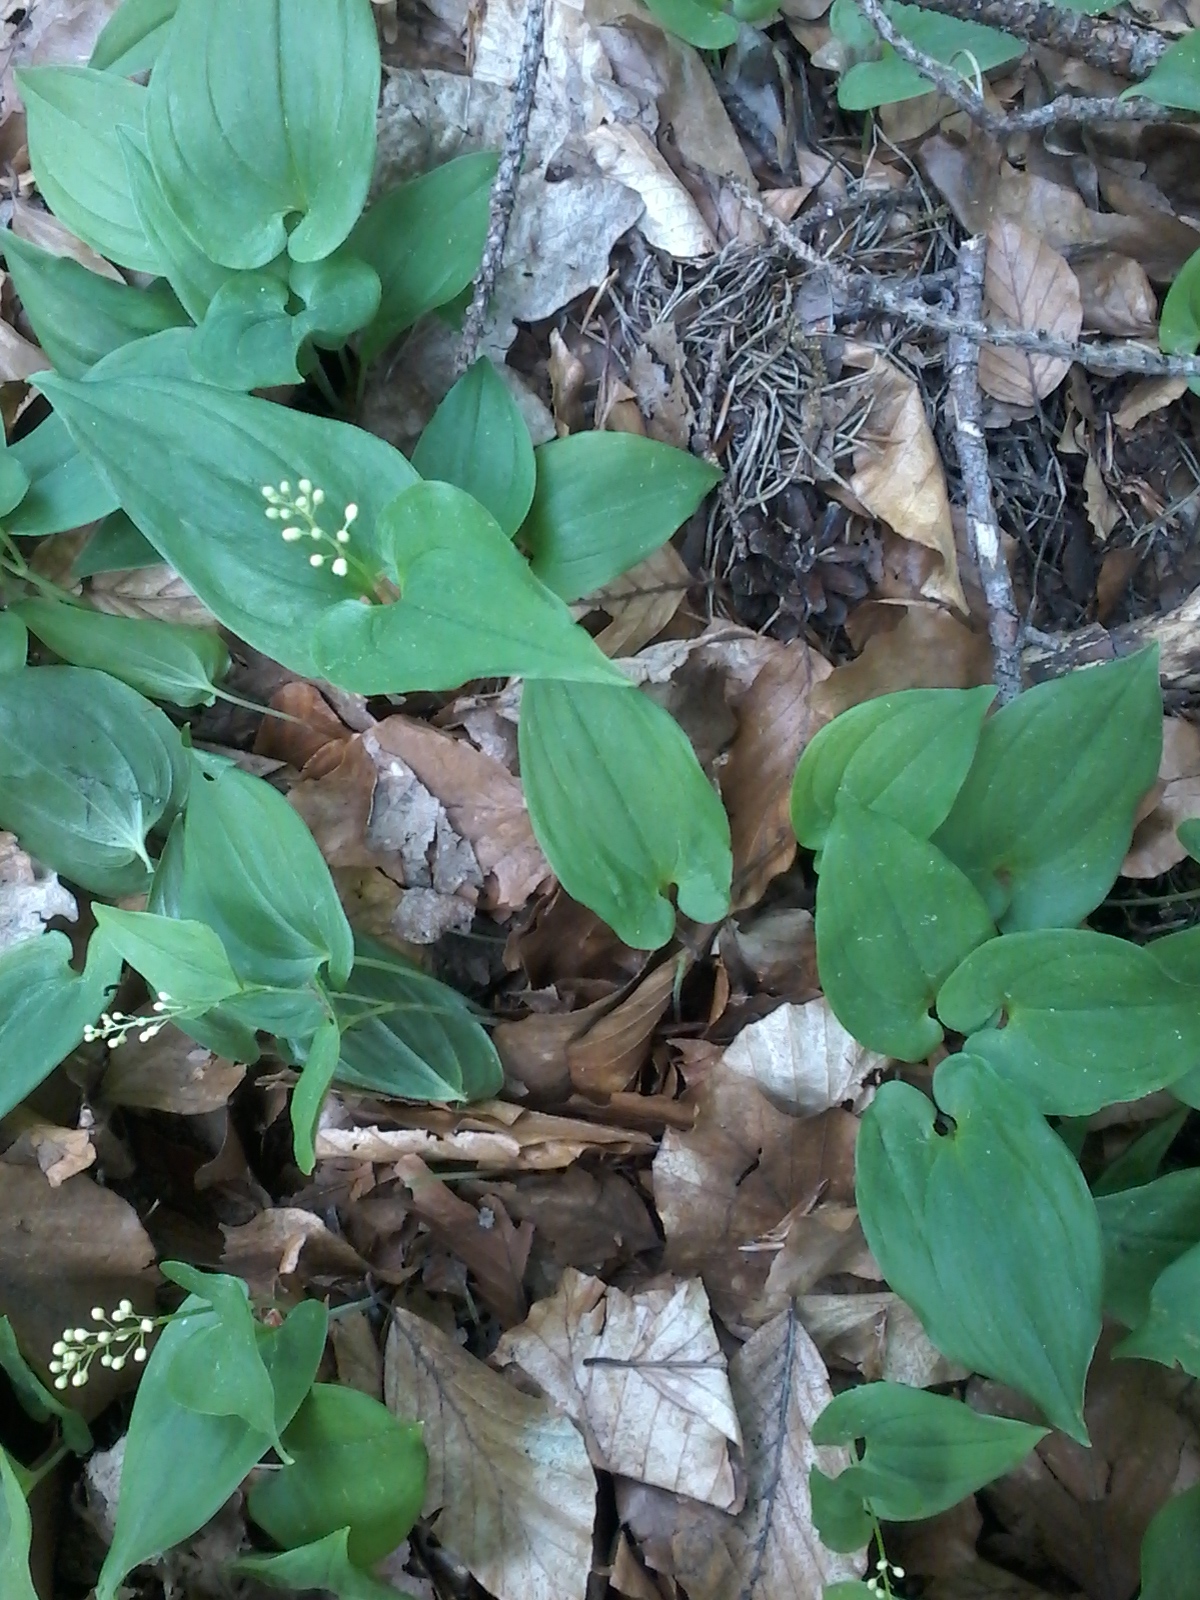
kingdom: Plantae
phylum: Tracheophyta
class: Liliopsida
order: Asparagales
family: Asparagaceae
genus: Maianthemum
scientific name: Maianthemum bifolium
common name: May lily
